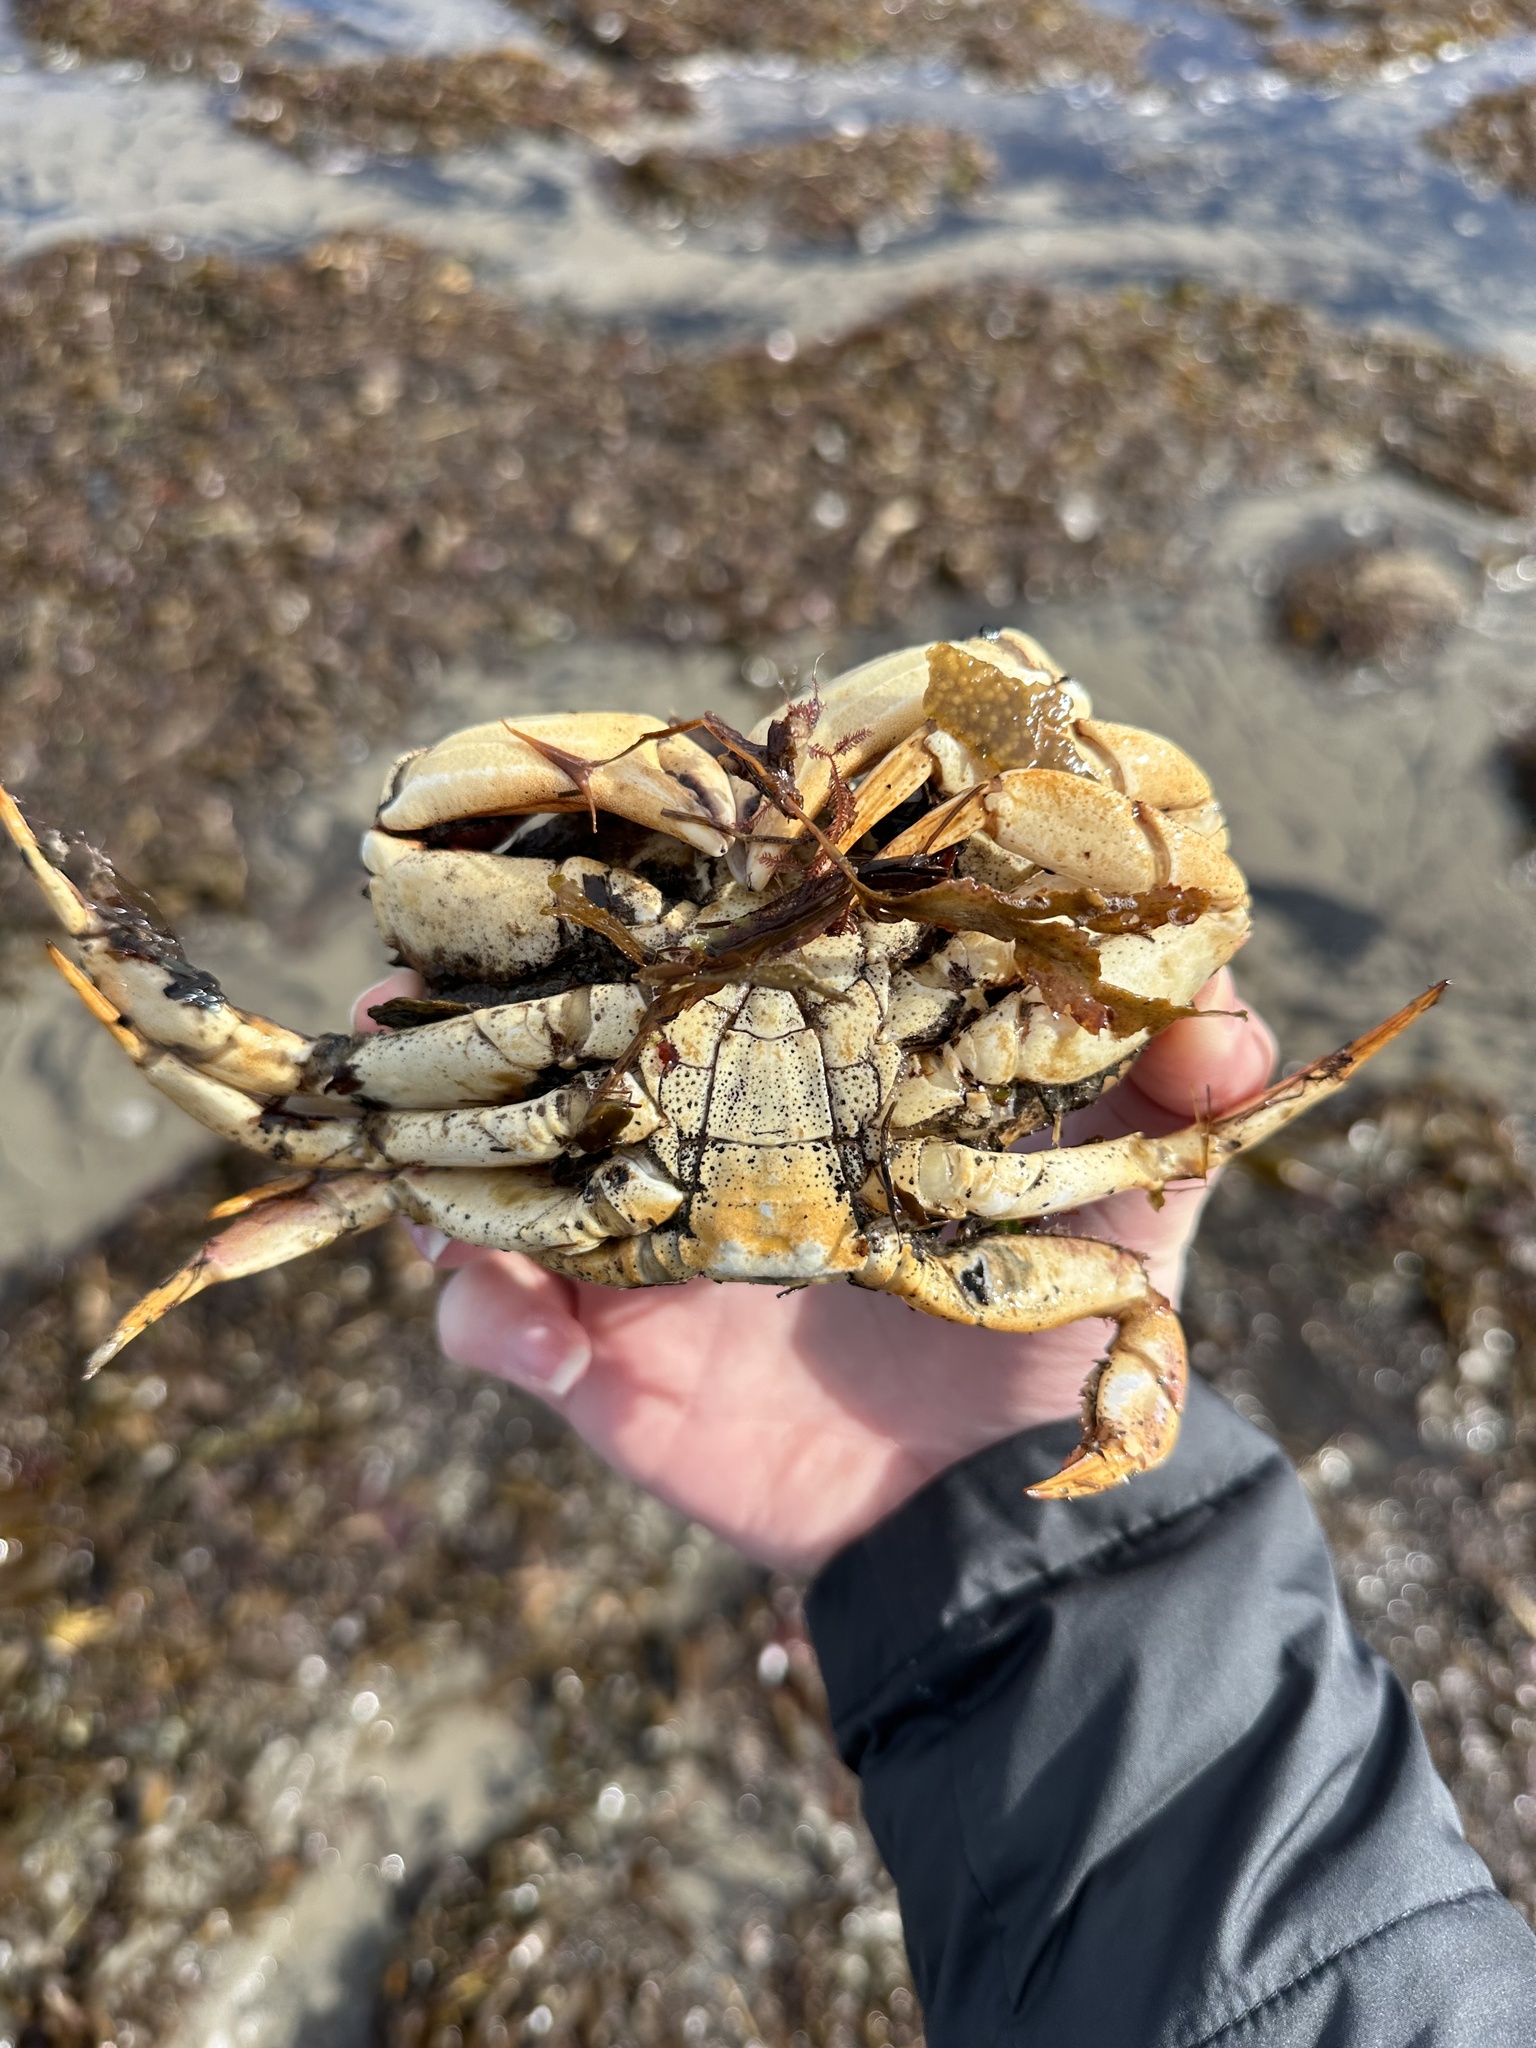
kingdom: Animalia
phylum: Arthropoda
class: Malacostraca
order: Decapoda
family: Cancridae
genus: Cancer
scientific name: Cancer irroratus
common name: Atlantic rock crab
